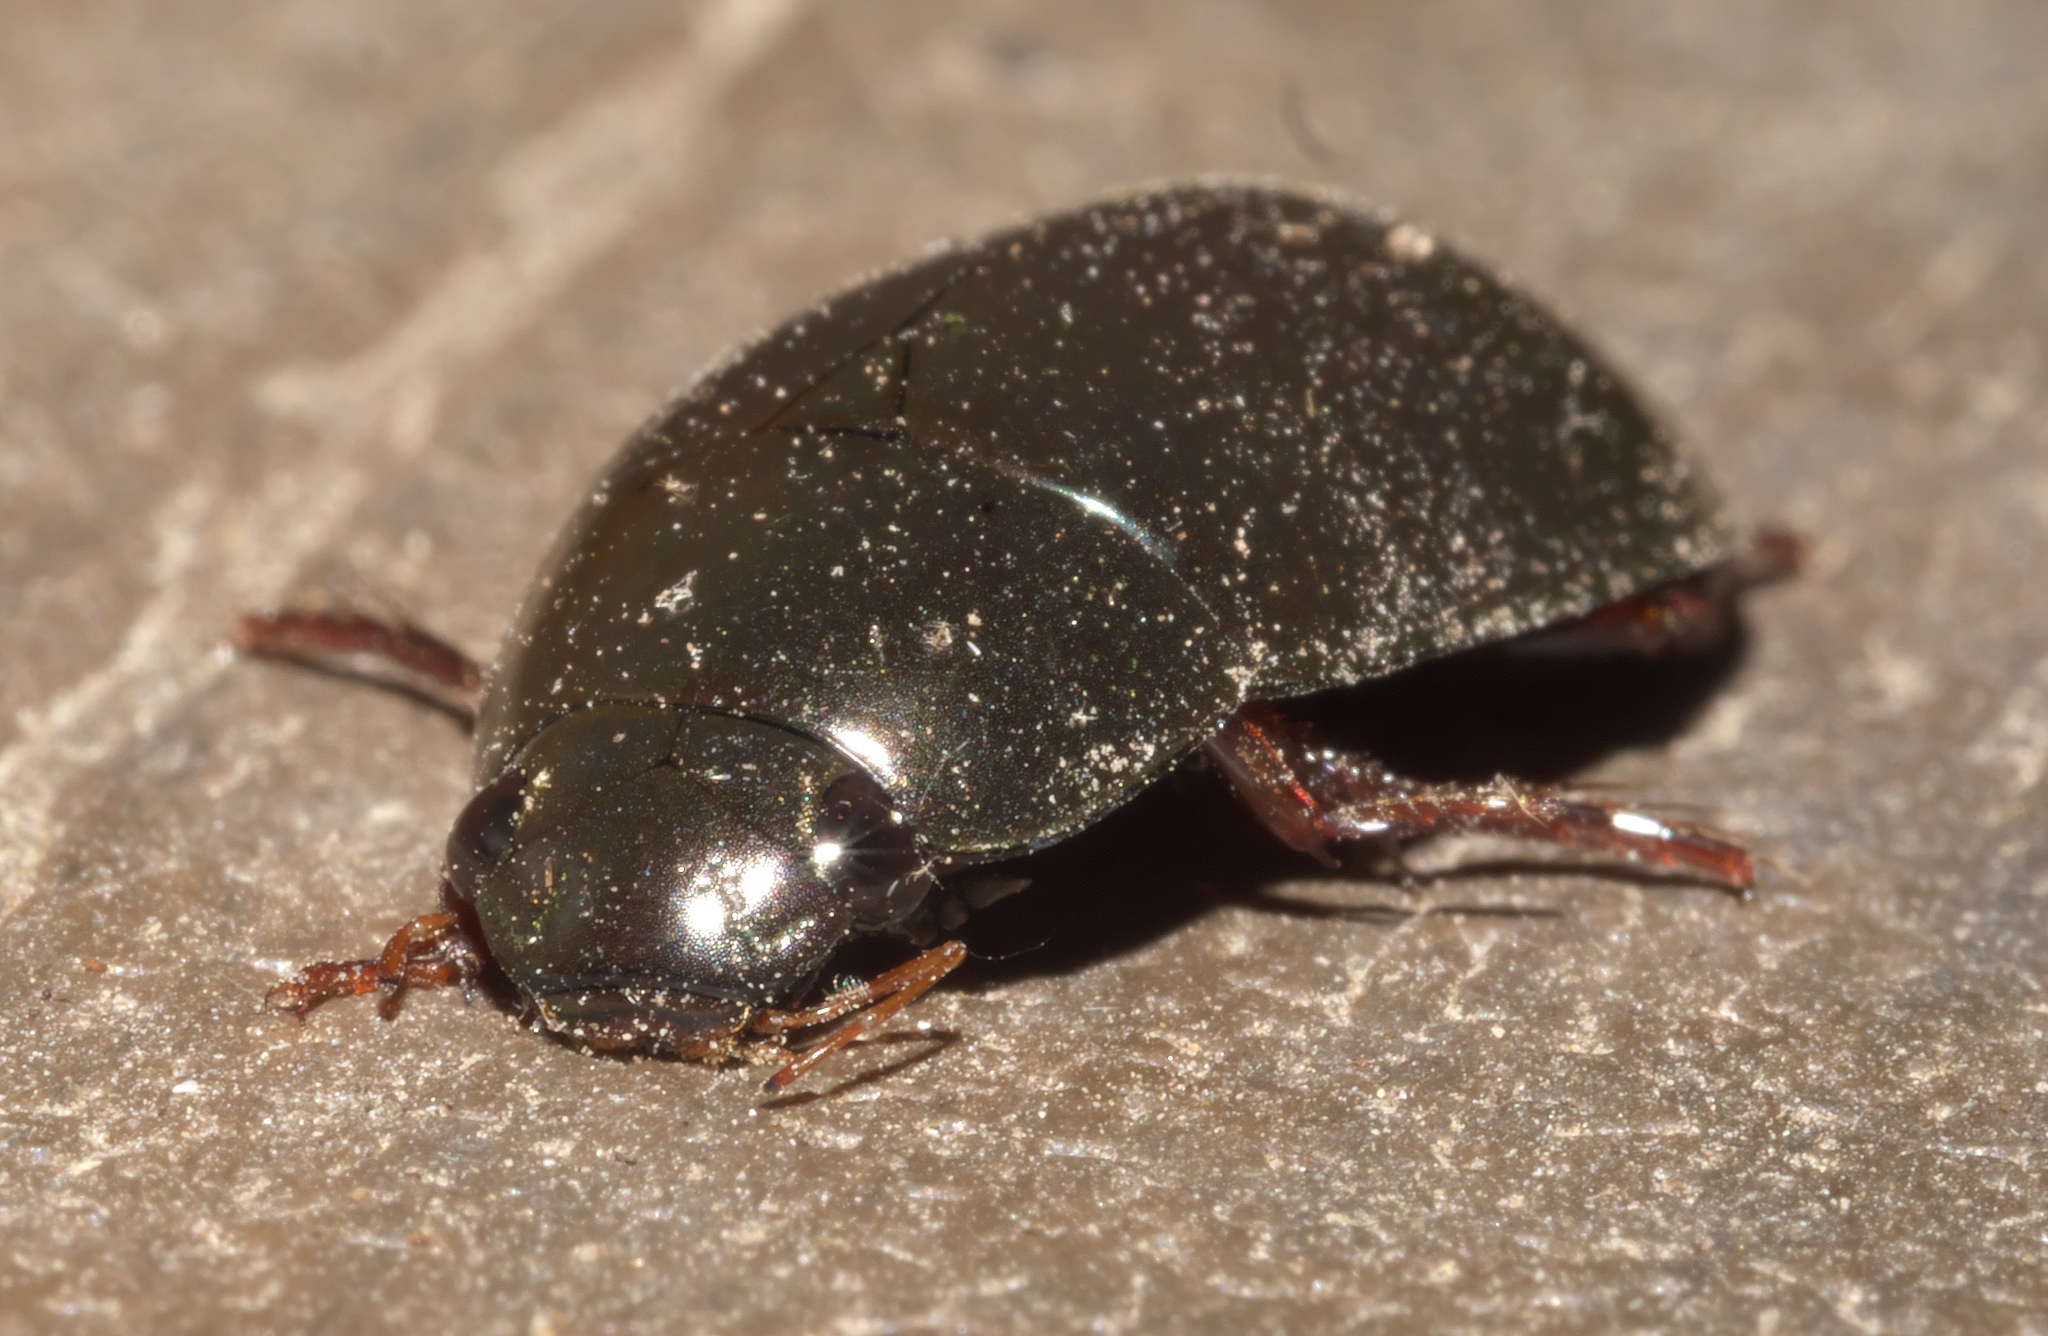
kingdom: Animalia
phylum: Arthropoda
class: Insecta
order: Coleoptera
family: Hydrophilidae
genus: Hydrochara
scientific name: Hydrochara
